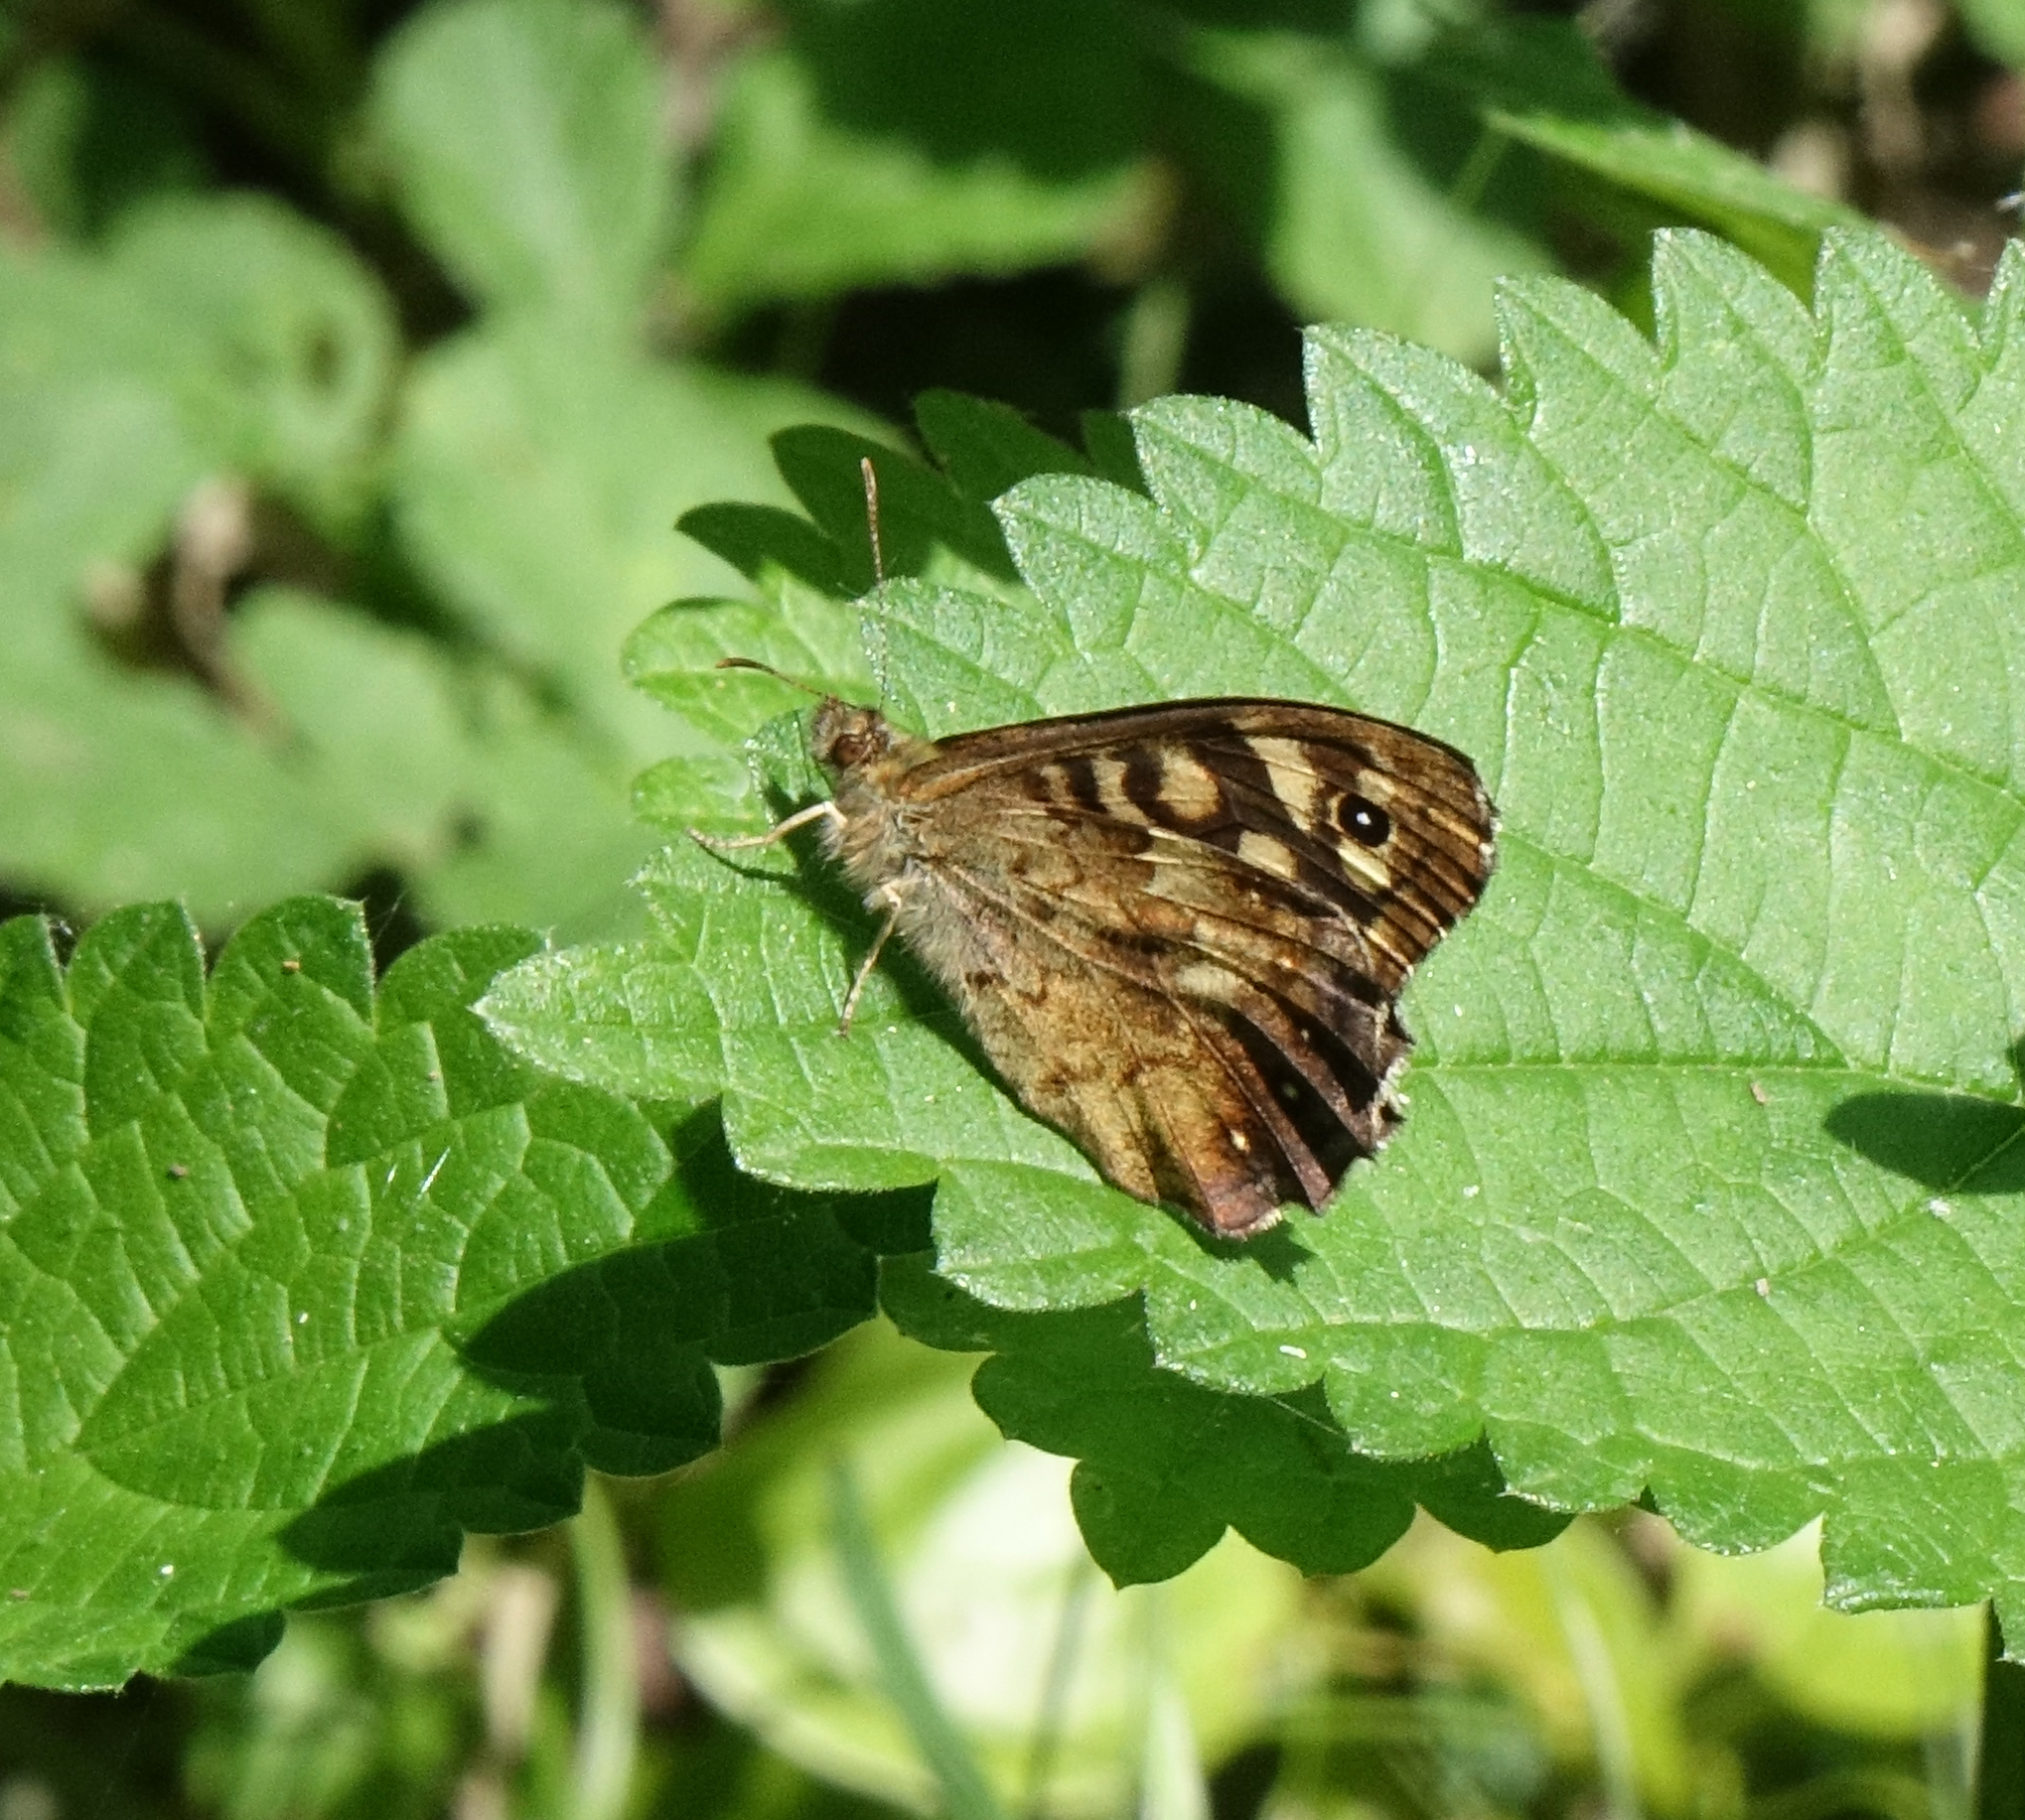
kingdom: Animalia
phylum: Arthropoda
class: Insecta
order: Lepidoptera
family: Nymphalidae
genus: Pararge
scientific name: Pararge aegeria
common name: Speckled wood
